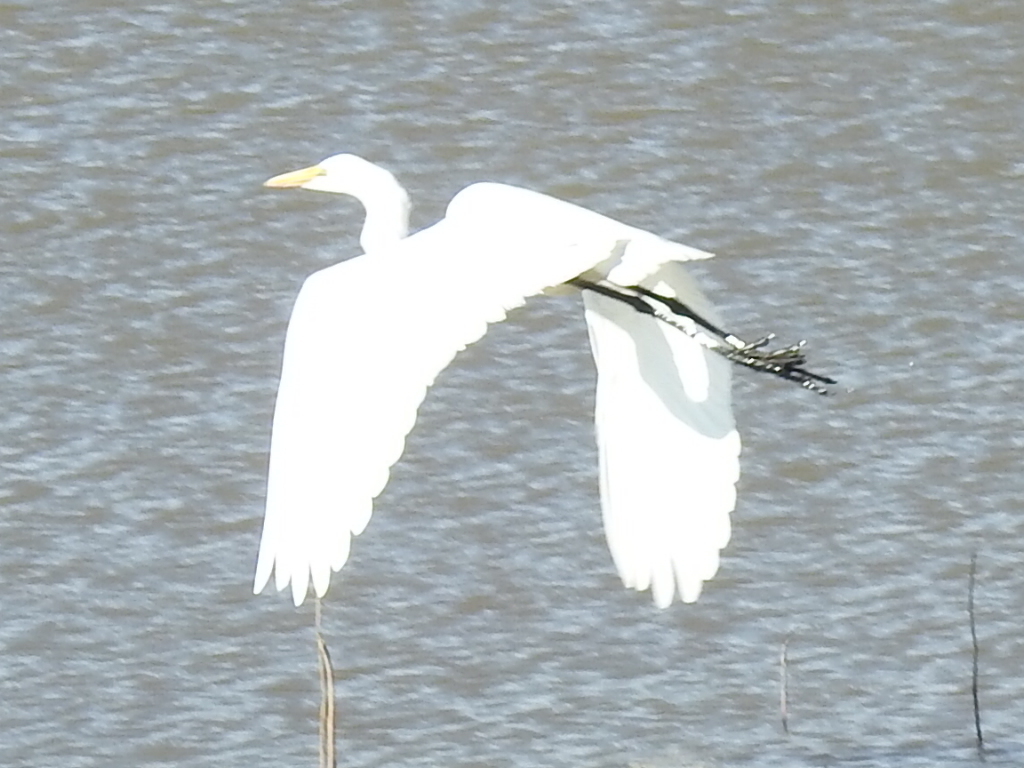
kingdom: Animalia
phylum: Chordata
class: Aves
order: Pelecaniformes
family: Ardeidae
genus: Ardea
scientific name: Ardea alba
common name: Great egret
